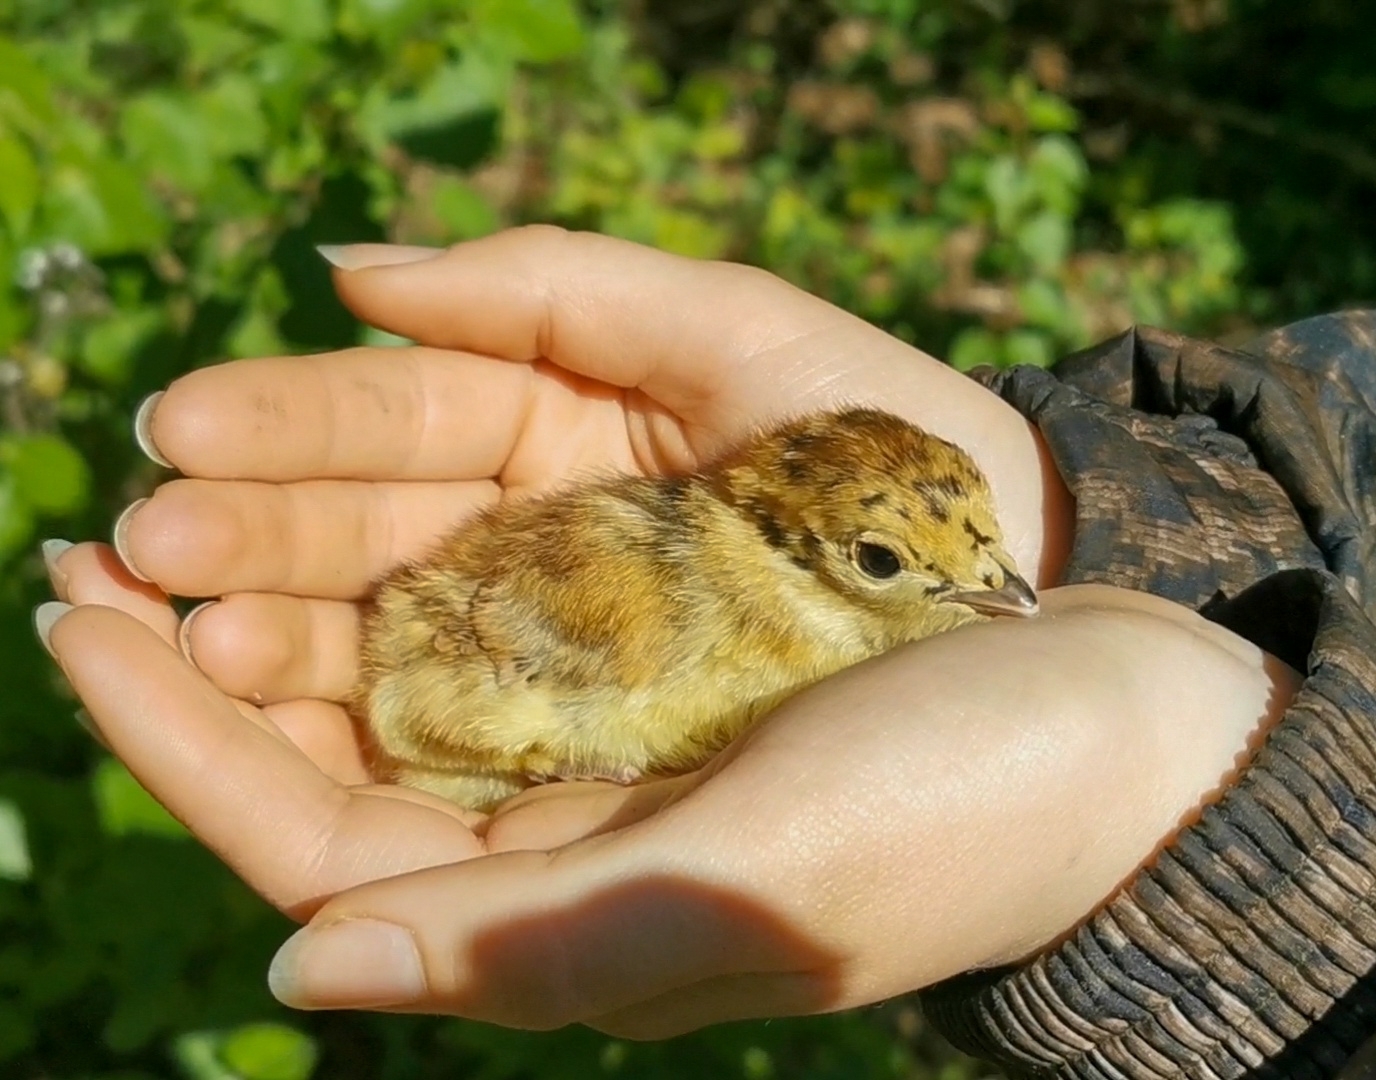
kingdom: Animalia
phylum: Chordata
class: Aves
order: Galliformes
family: Phasianidae
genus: Tetrao
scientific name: Tetrao urogalloides
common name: Black-billed capercaillie
